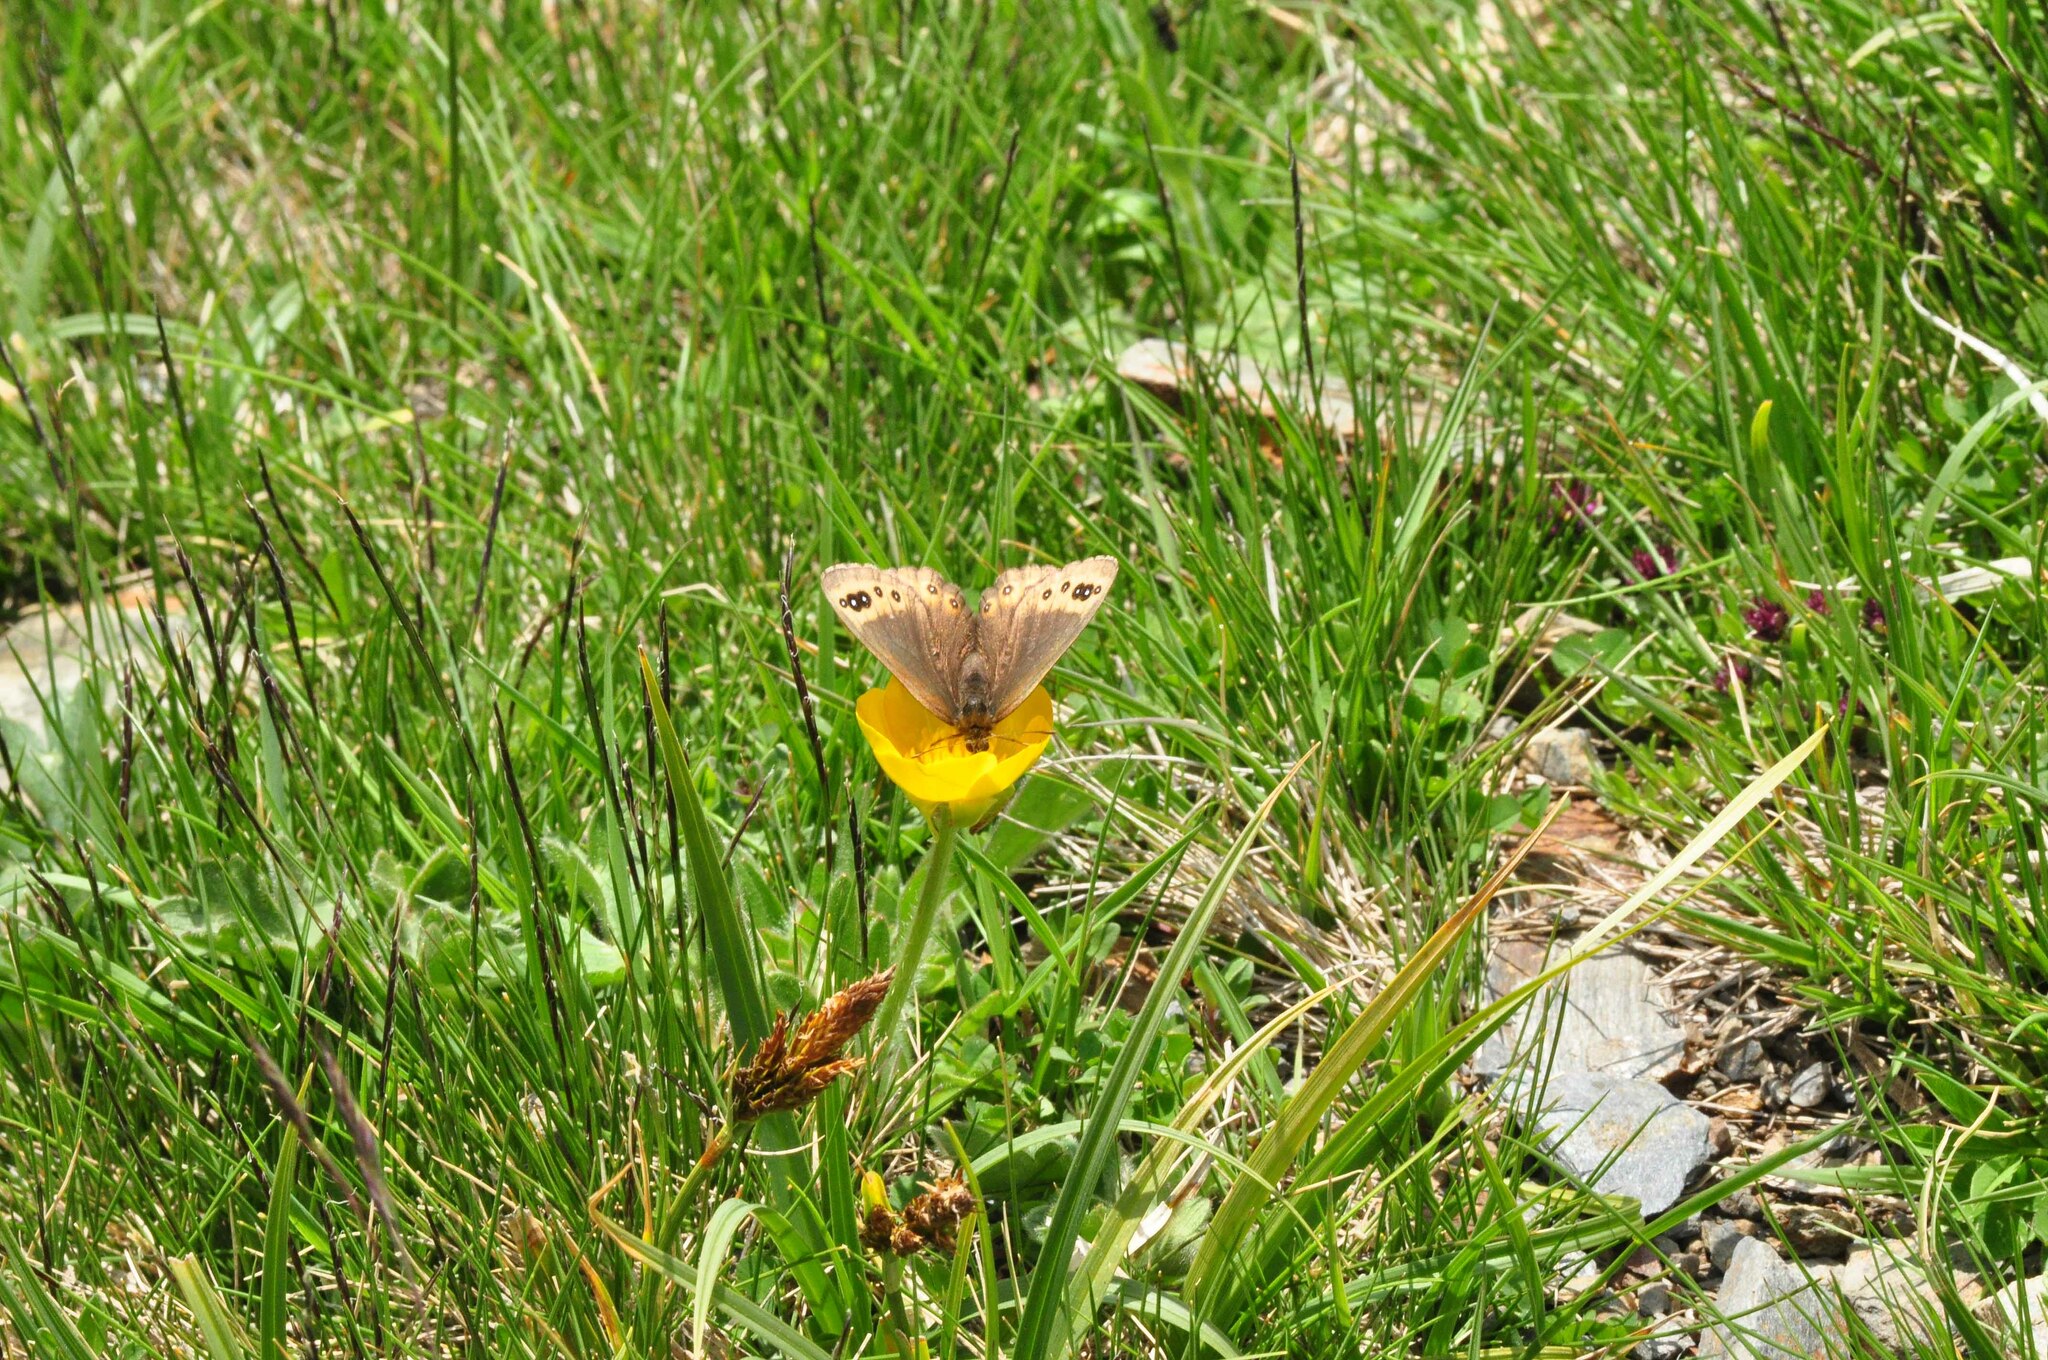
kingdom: Animalia
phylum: Arthropoda
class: Insecta
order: Lepidoptera
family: Nymphalidae
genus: Erebia
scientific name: Erebia triarius
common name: De prunner’s ringlet
